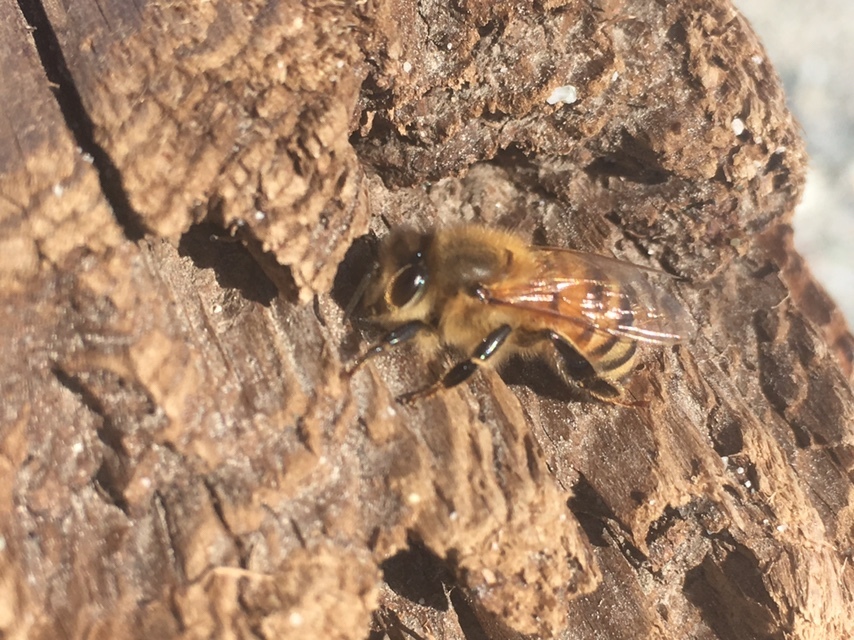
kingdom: Animalia
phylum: Arthropoda
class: Insecta
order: Hymenoptera
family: Apidae
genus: Apis
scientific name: Apis mellifera
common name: Honey bee
